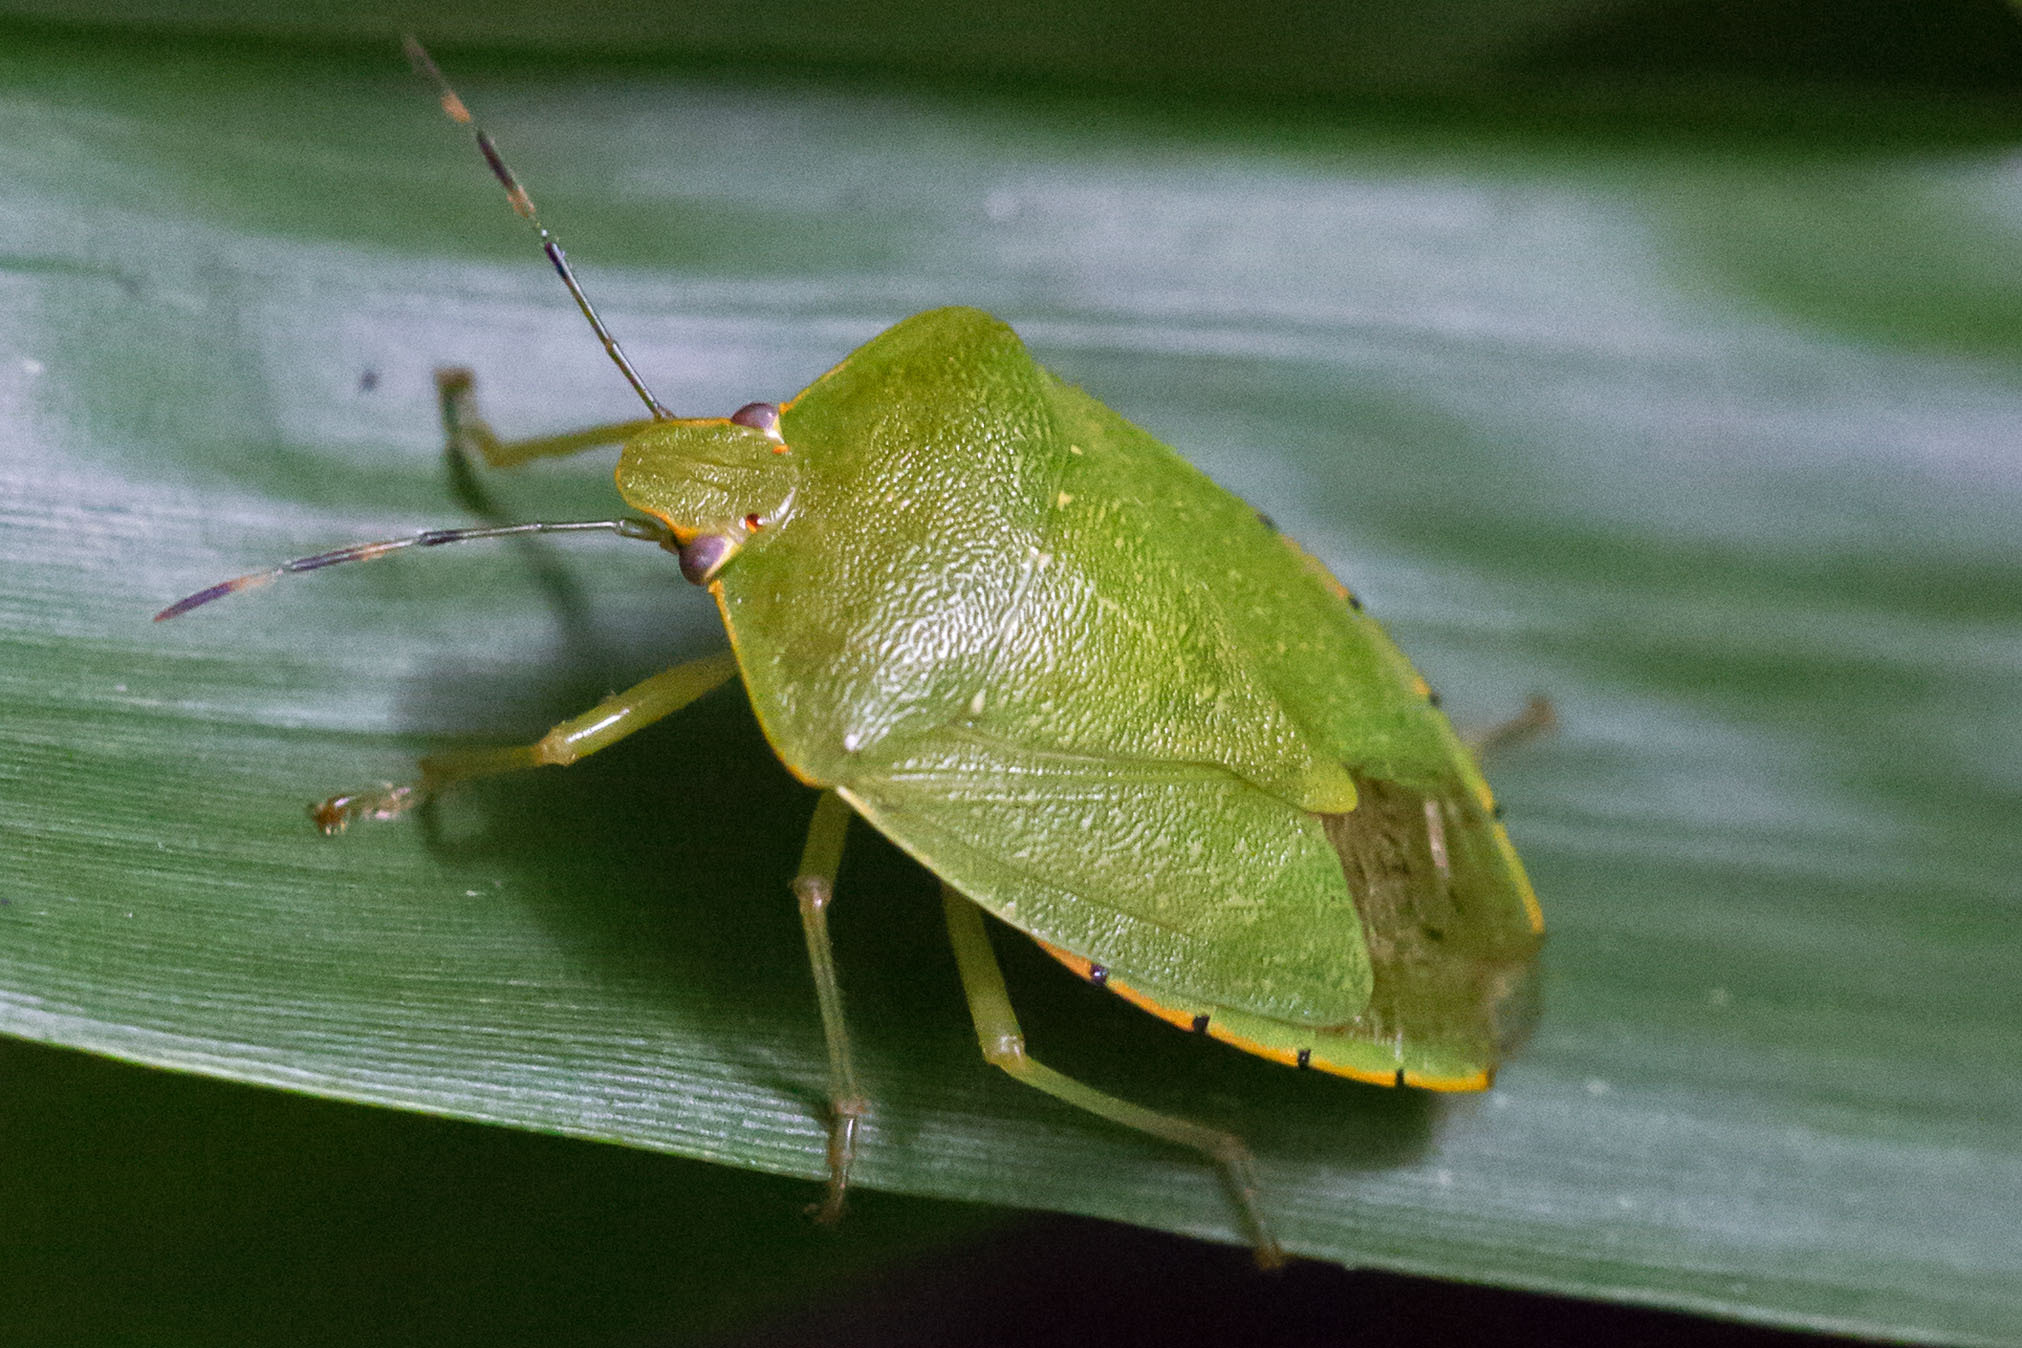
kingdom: Animalia
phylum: Arthropoda
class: Insecta
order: Hemiptera
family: Pentatomidae
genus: Chinavia
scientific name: Chinavia hilaris
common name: Green stink bug
